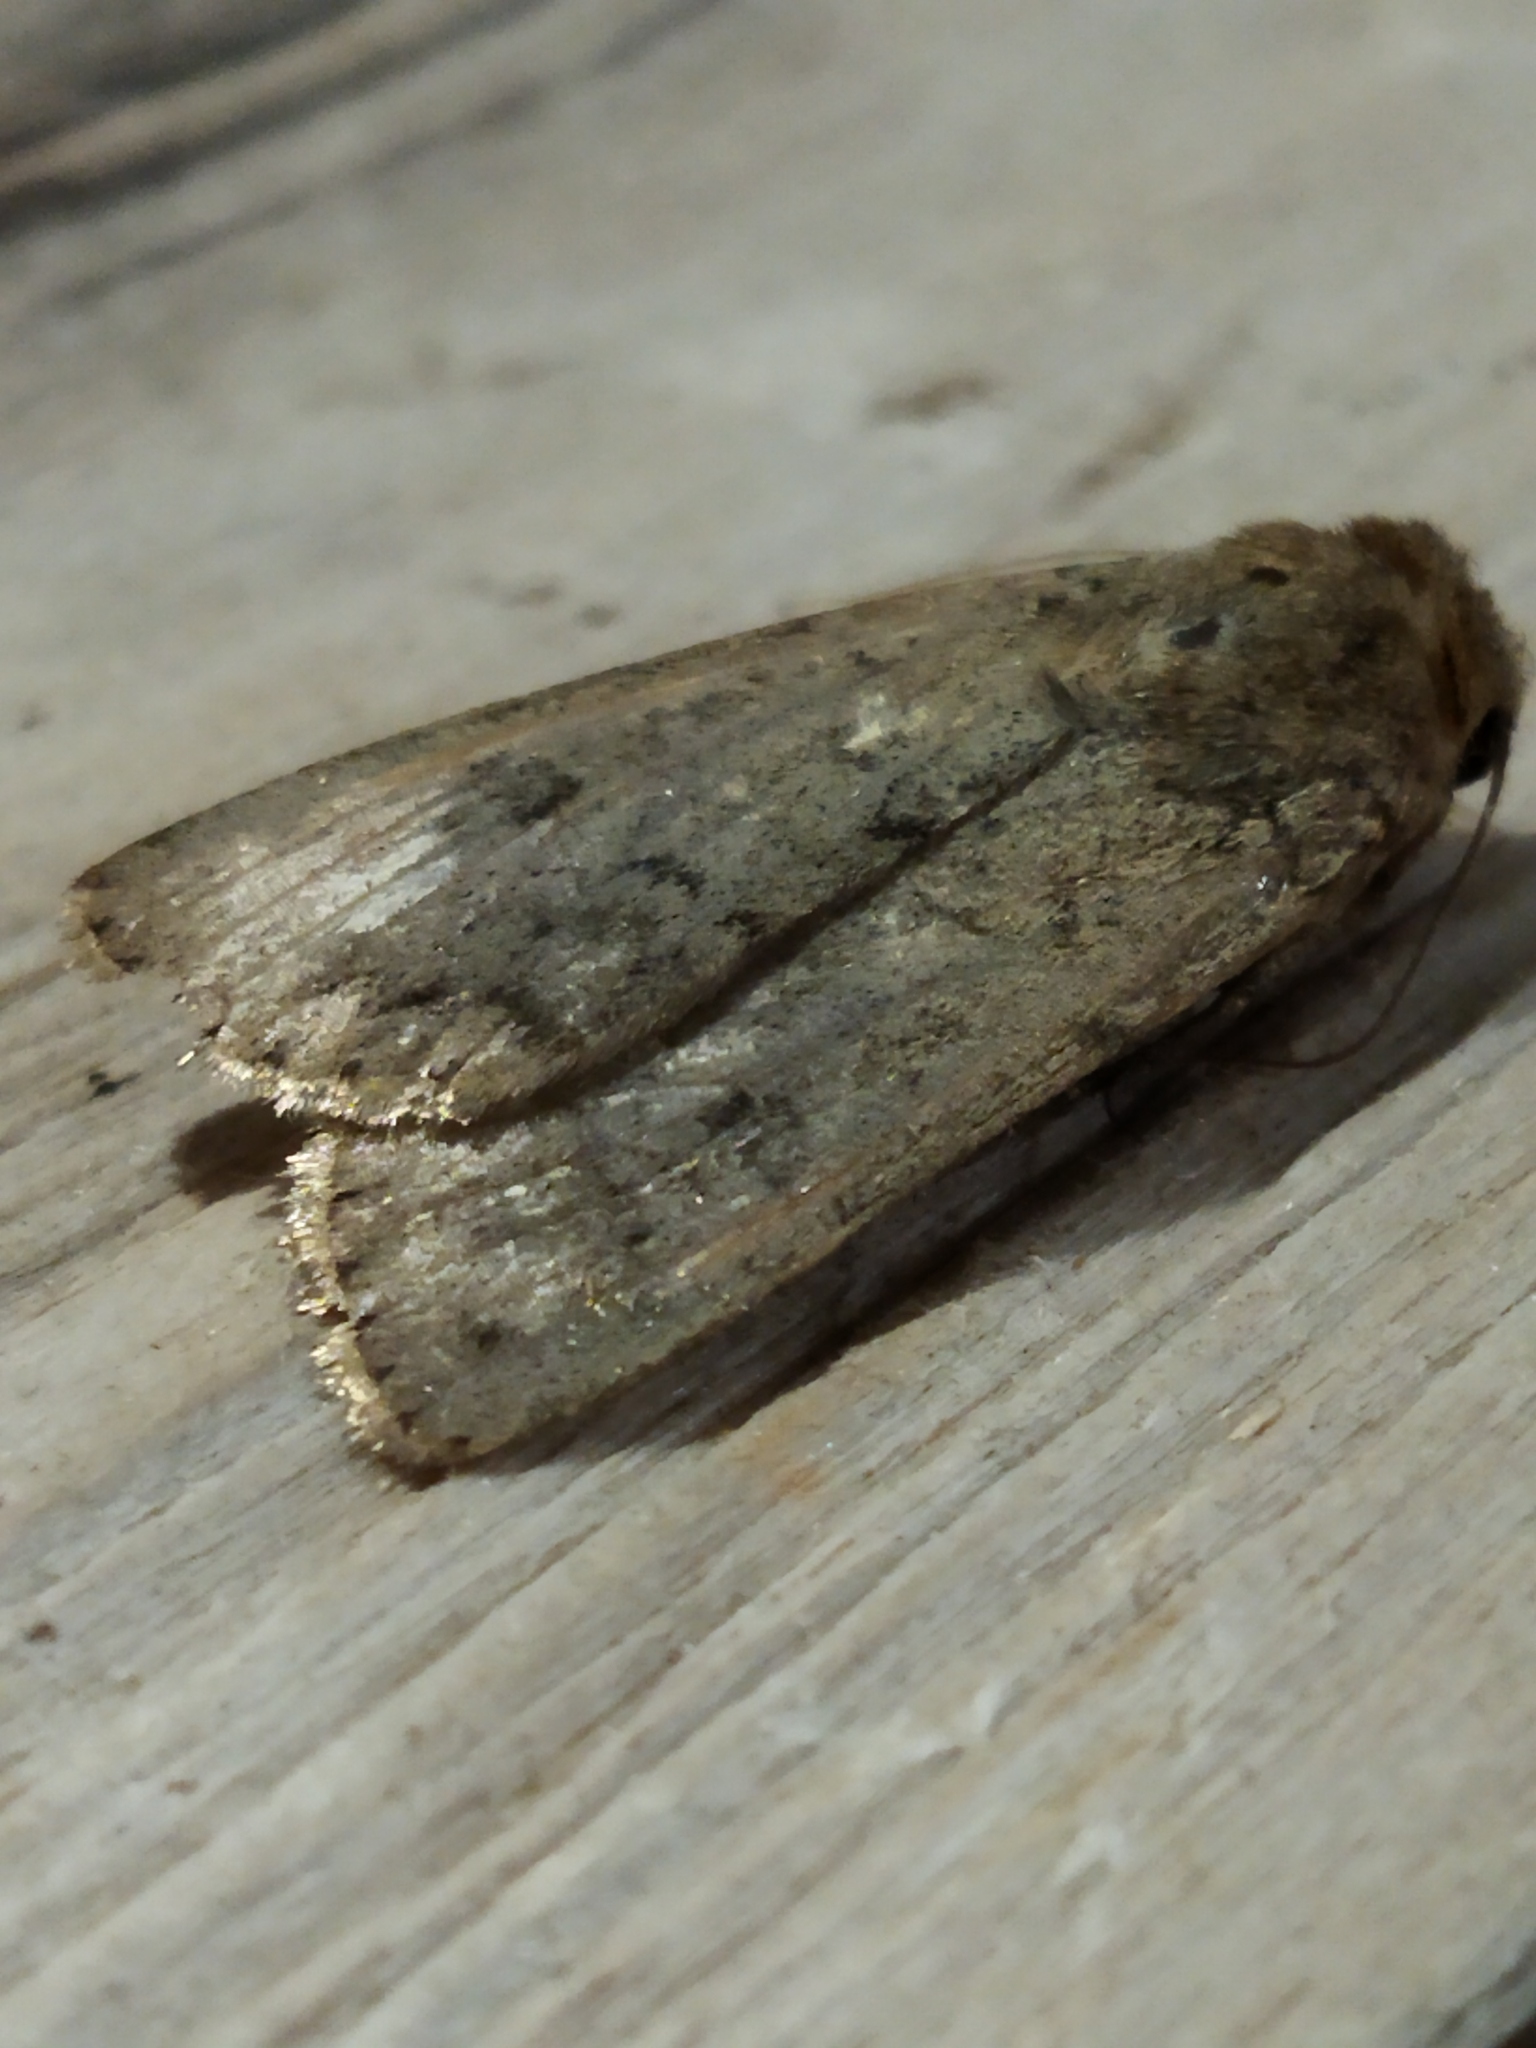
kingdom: Animalia
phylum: Arthropoda
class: Insecta
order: Lepidoptera
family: Noctuidae
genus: Rhyacia
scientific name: Rhyacia simulans
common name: Dotted rustic
